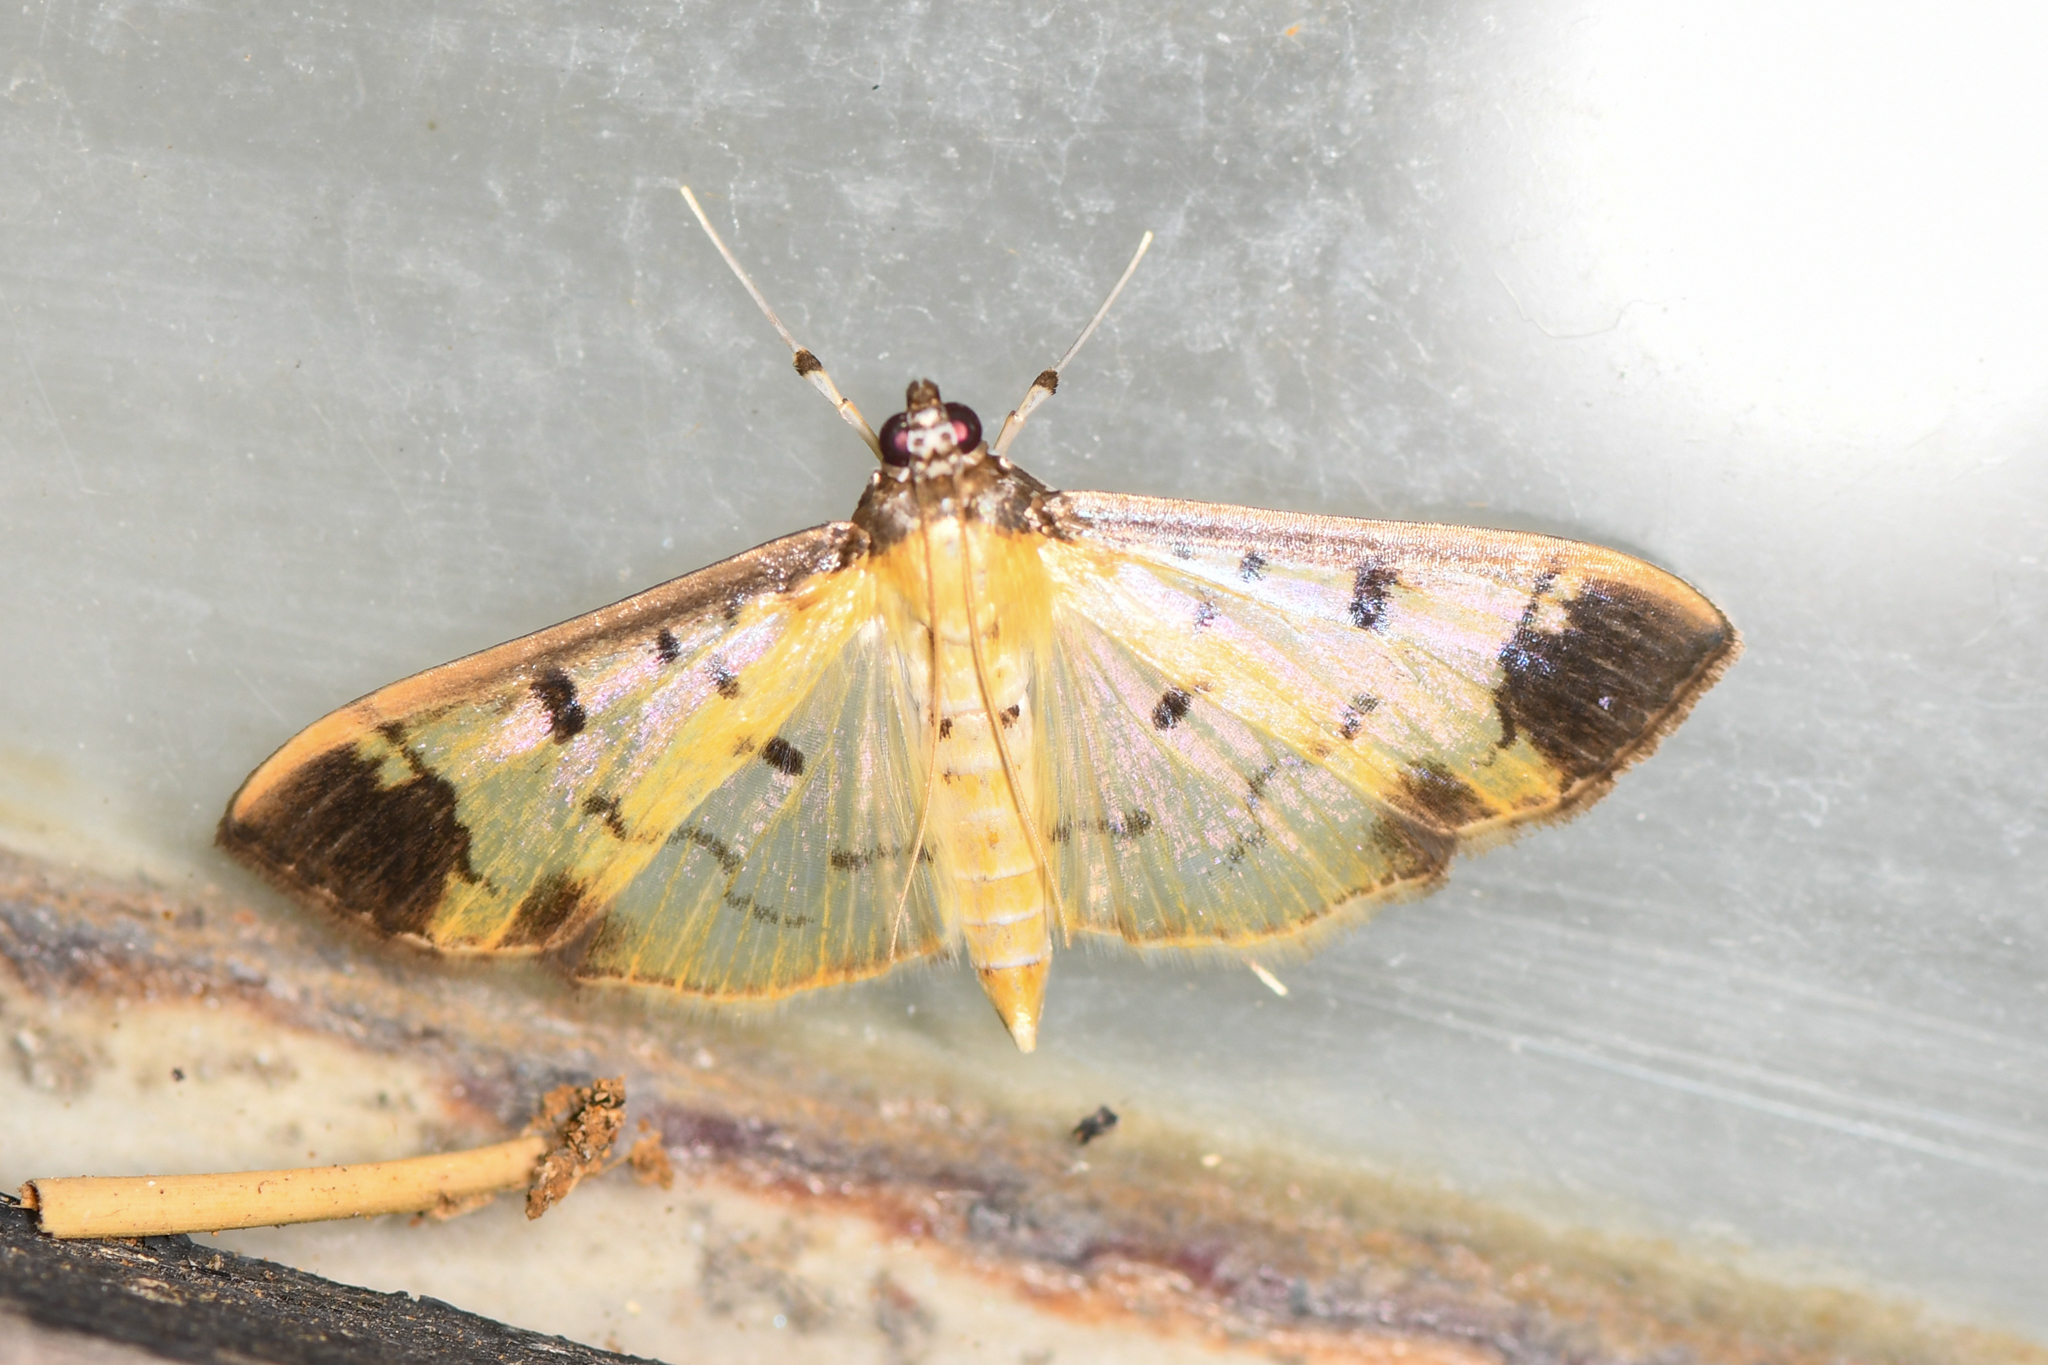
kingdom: Animalia
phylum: Arthropoda
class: Insecta
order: Lepidoptera
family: Crambidae
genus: Eulepte
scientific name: Eulepte concordalis
